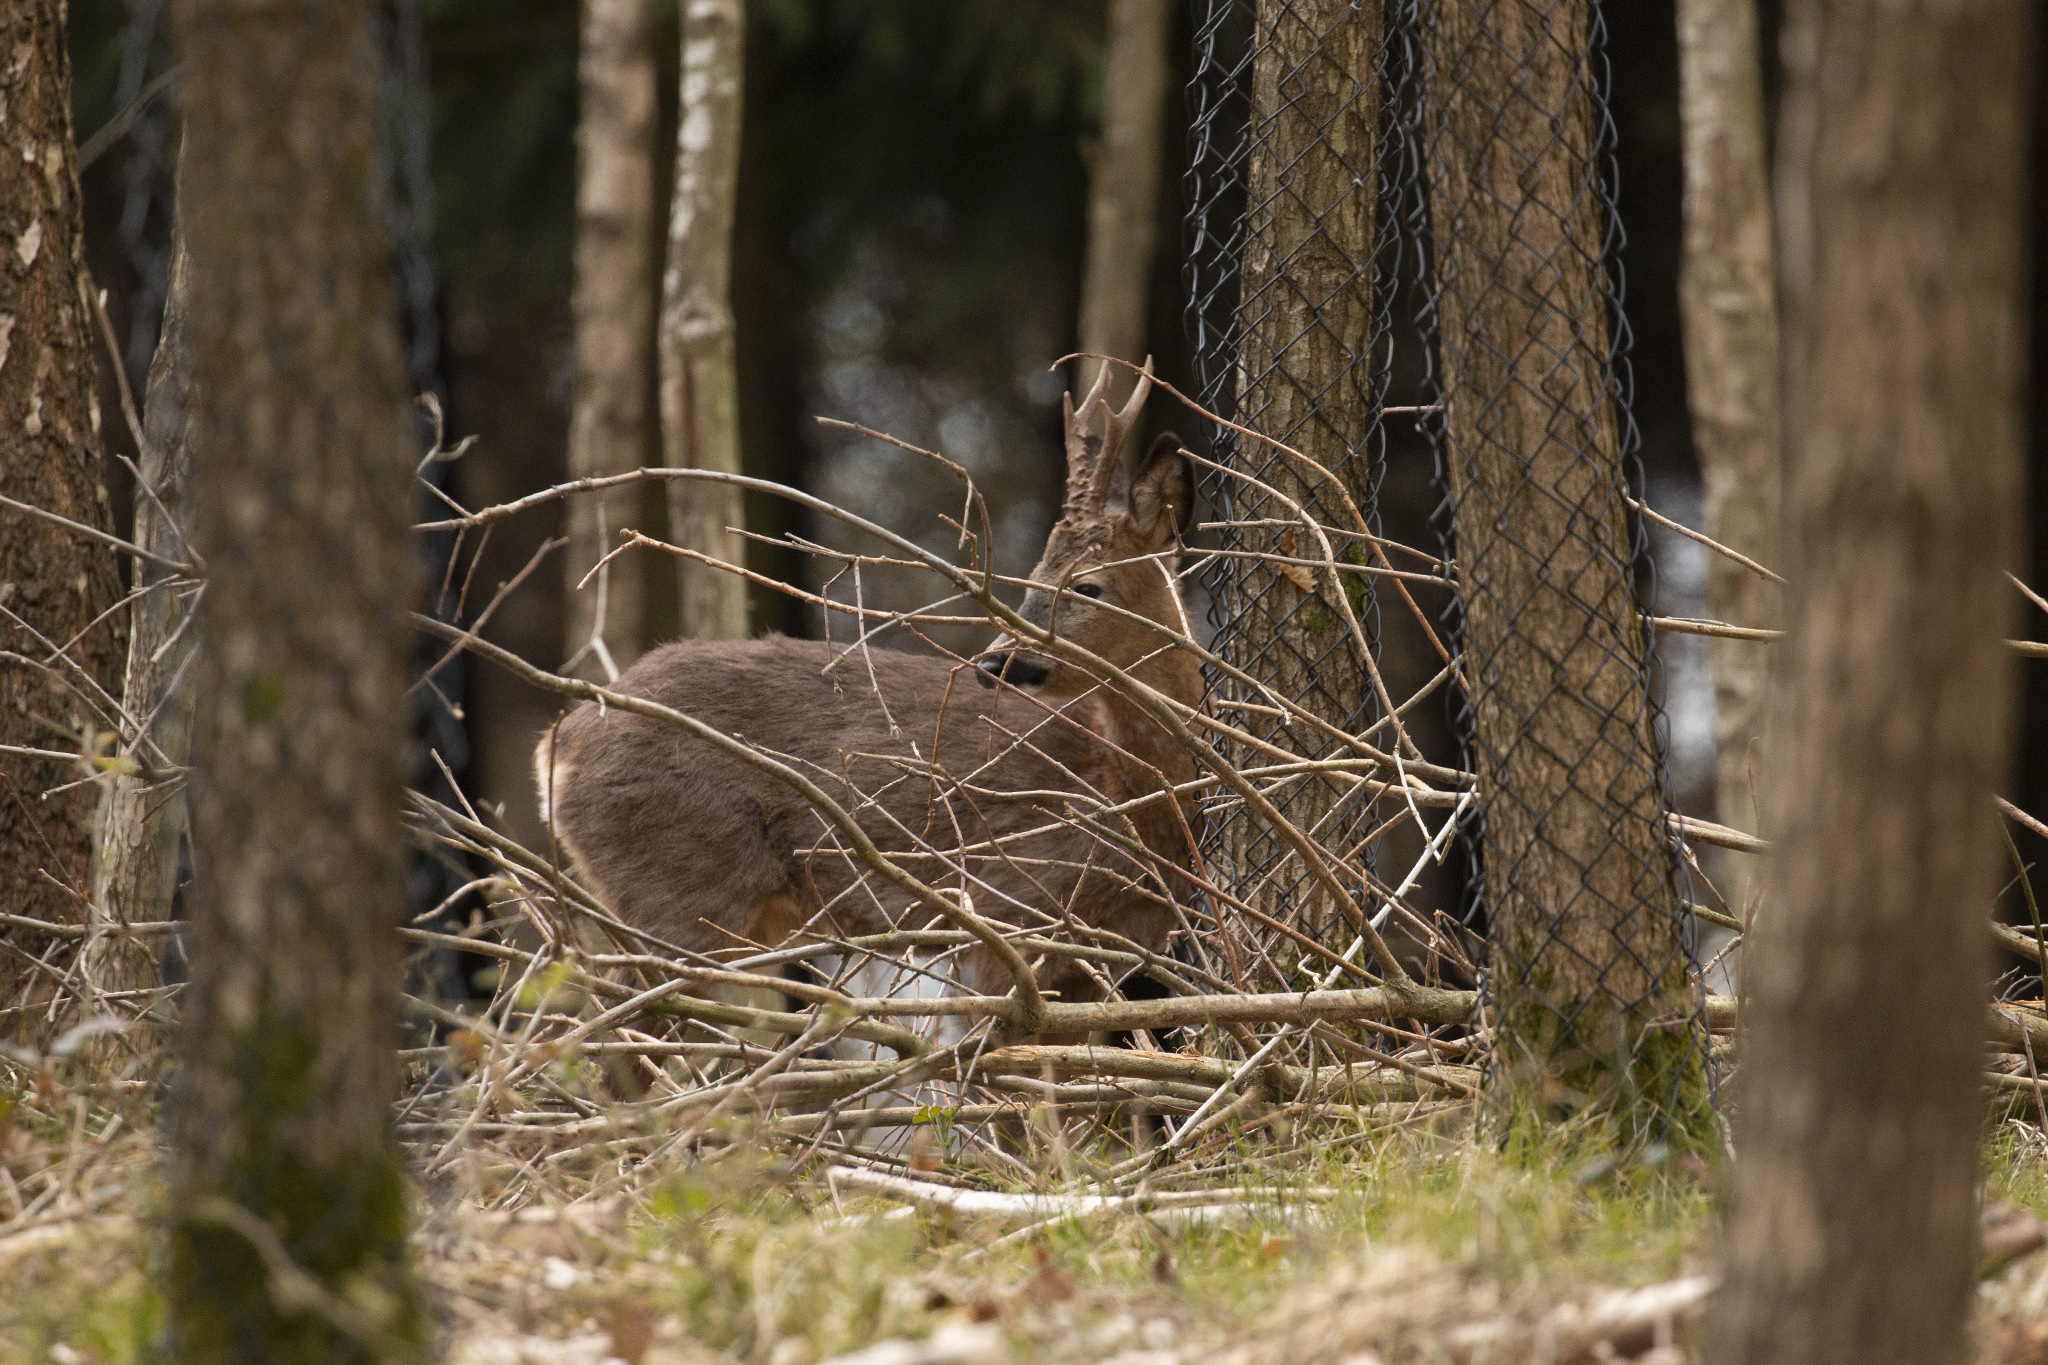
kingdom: Animalia
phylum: Chordata
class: Mammalia
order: Artiodactyla
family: Cervidae
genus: Capreolus
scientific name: Capreolus capreolus
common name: Western roe deer
